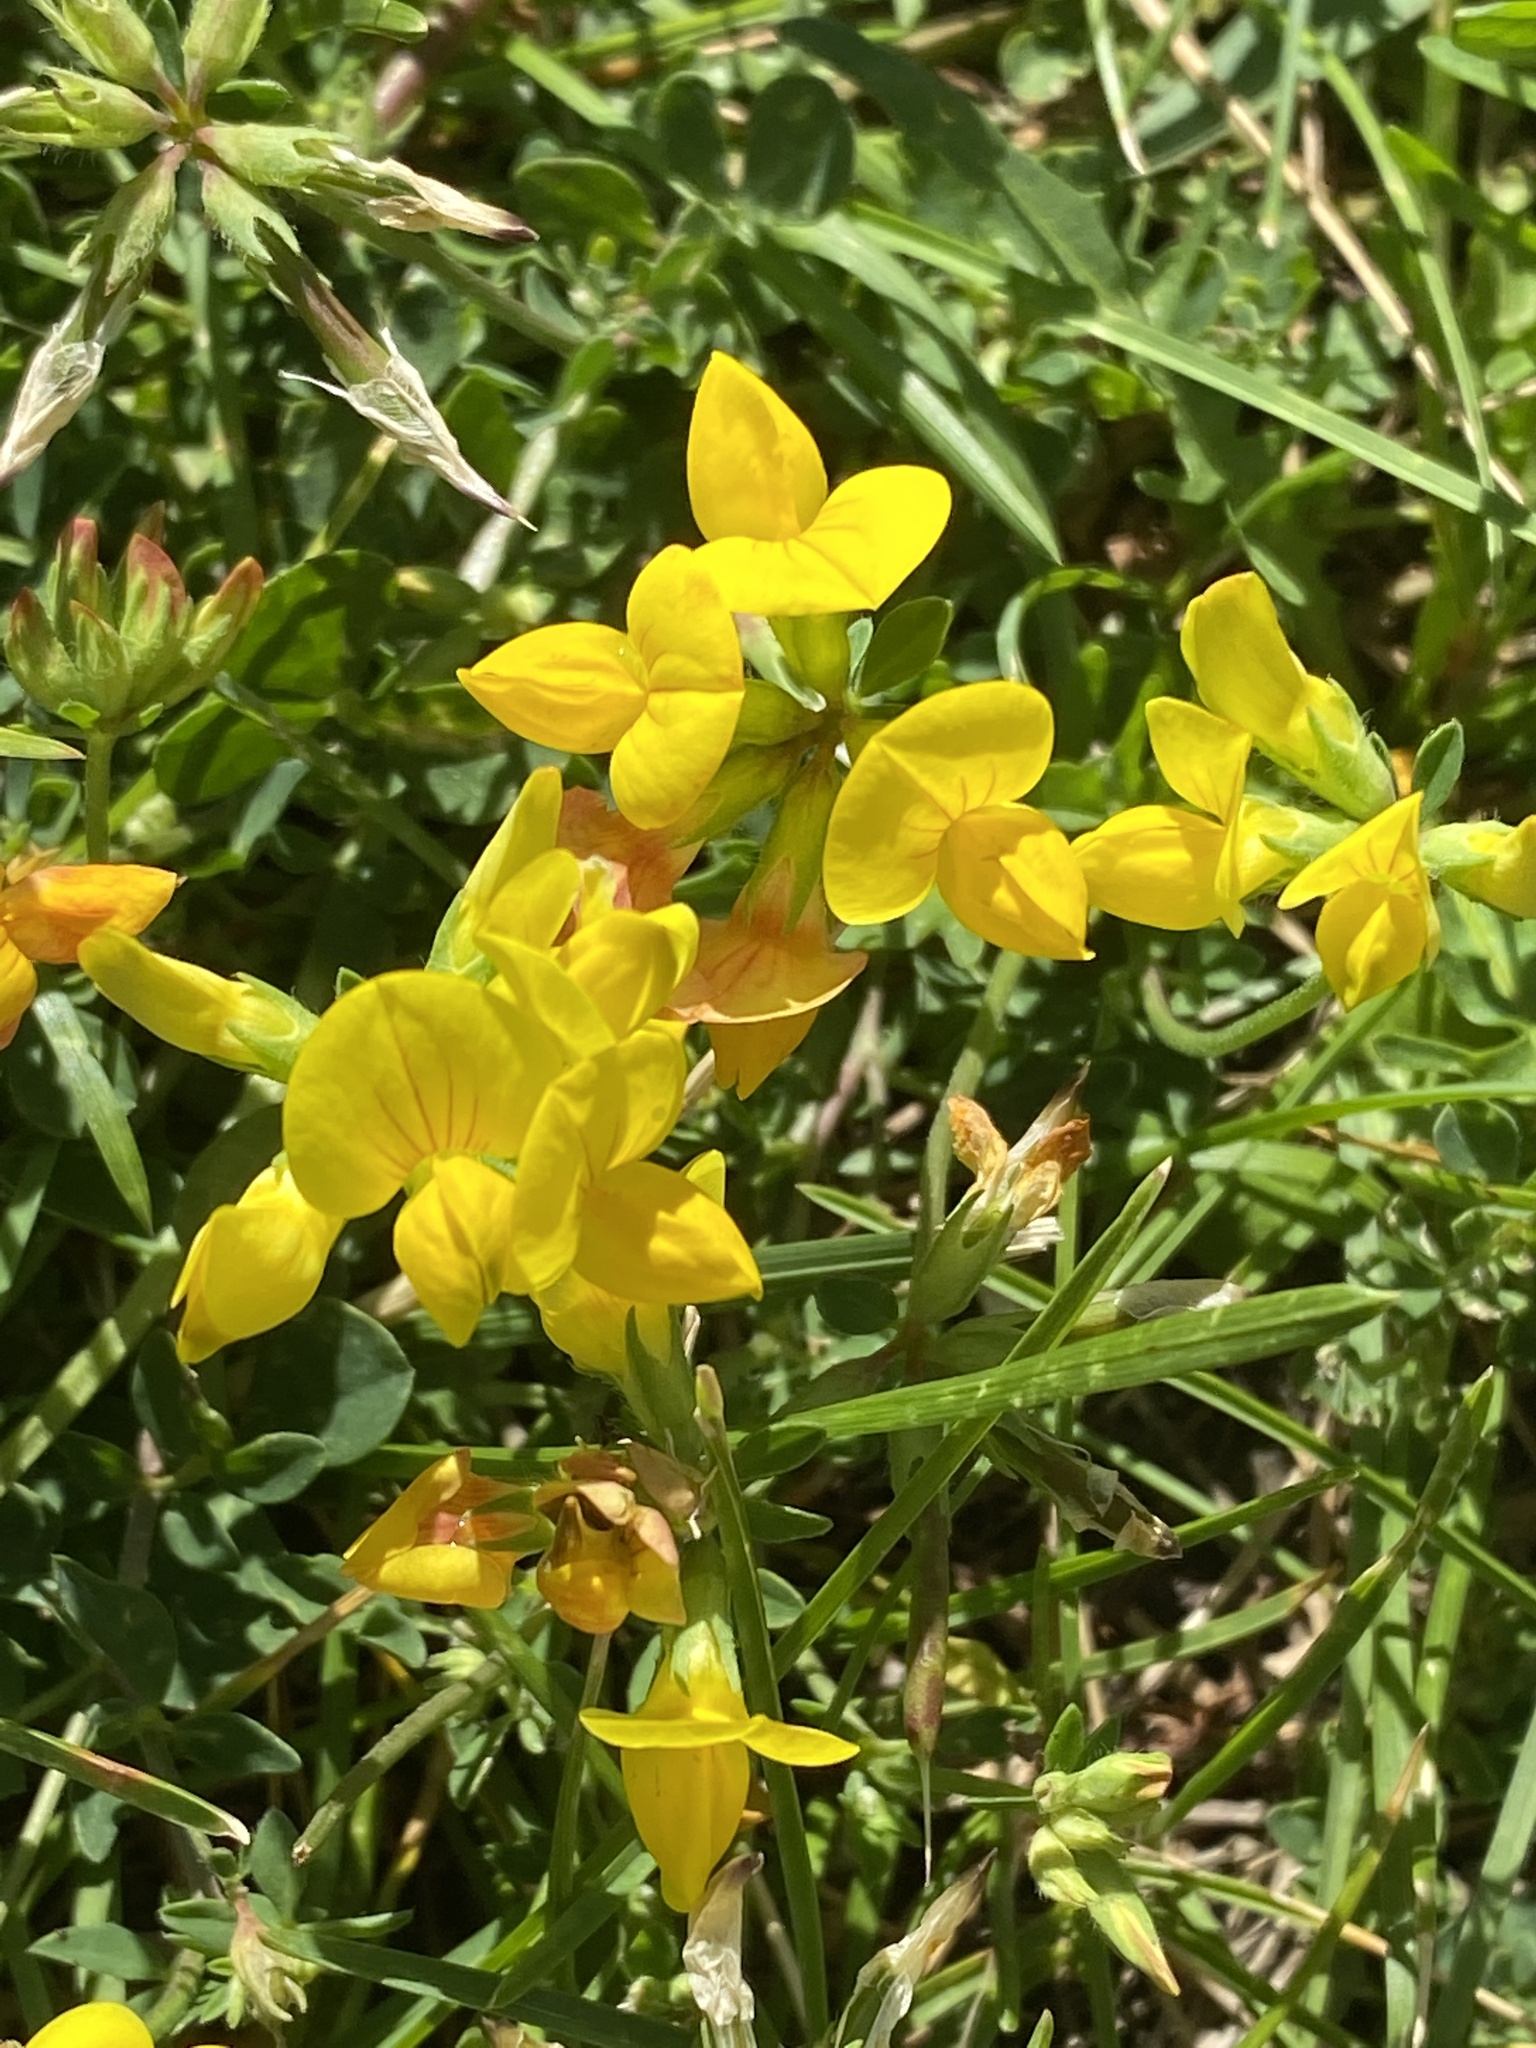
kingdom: Plantae
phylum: Tracheophyta
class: Magnoliopsida
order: Fabales
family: Fabaceae
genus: Lotus
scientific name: Lotus corniculatus
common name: Common bird's-foot-trefoil
